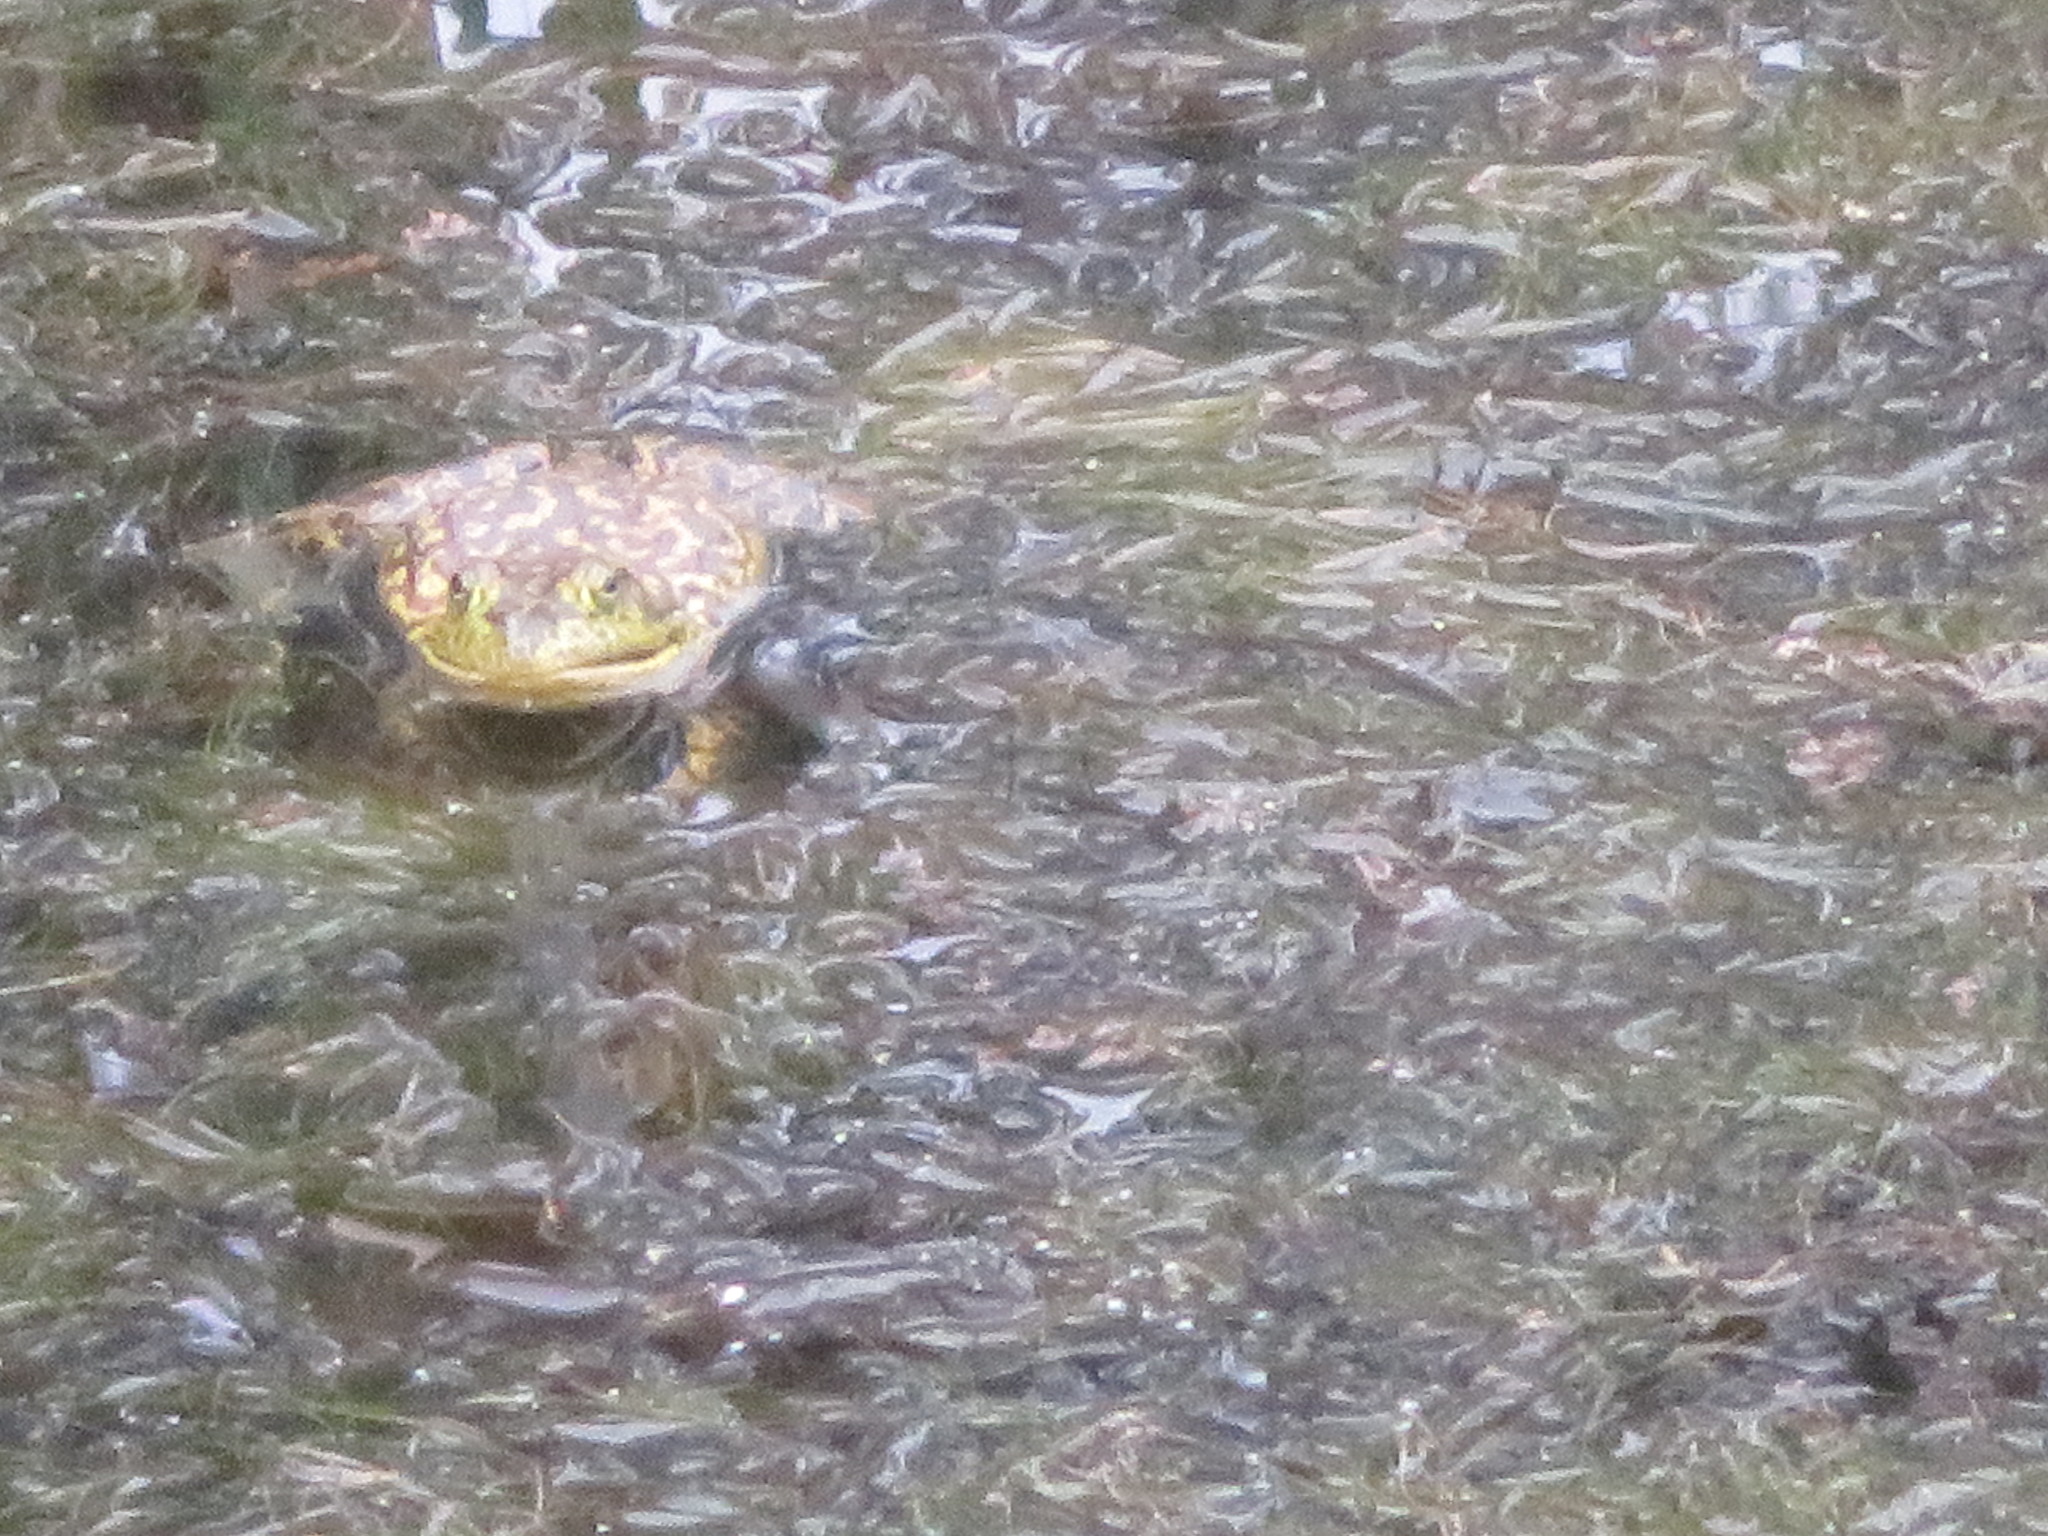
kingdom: Animalia
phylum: Chordata
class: Amphibia
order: Anura
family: Ranidae
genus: Lithobates
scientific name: Lithobates catesbeianus
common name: American bullfrog
